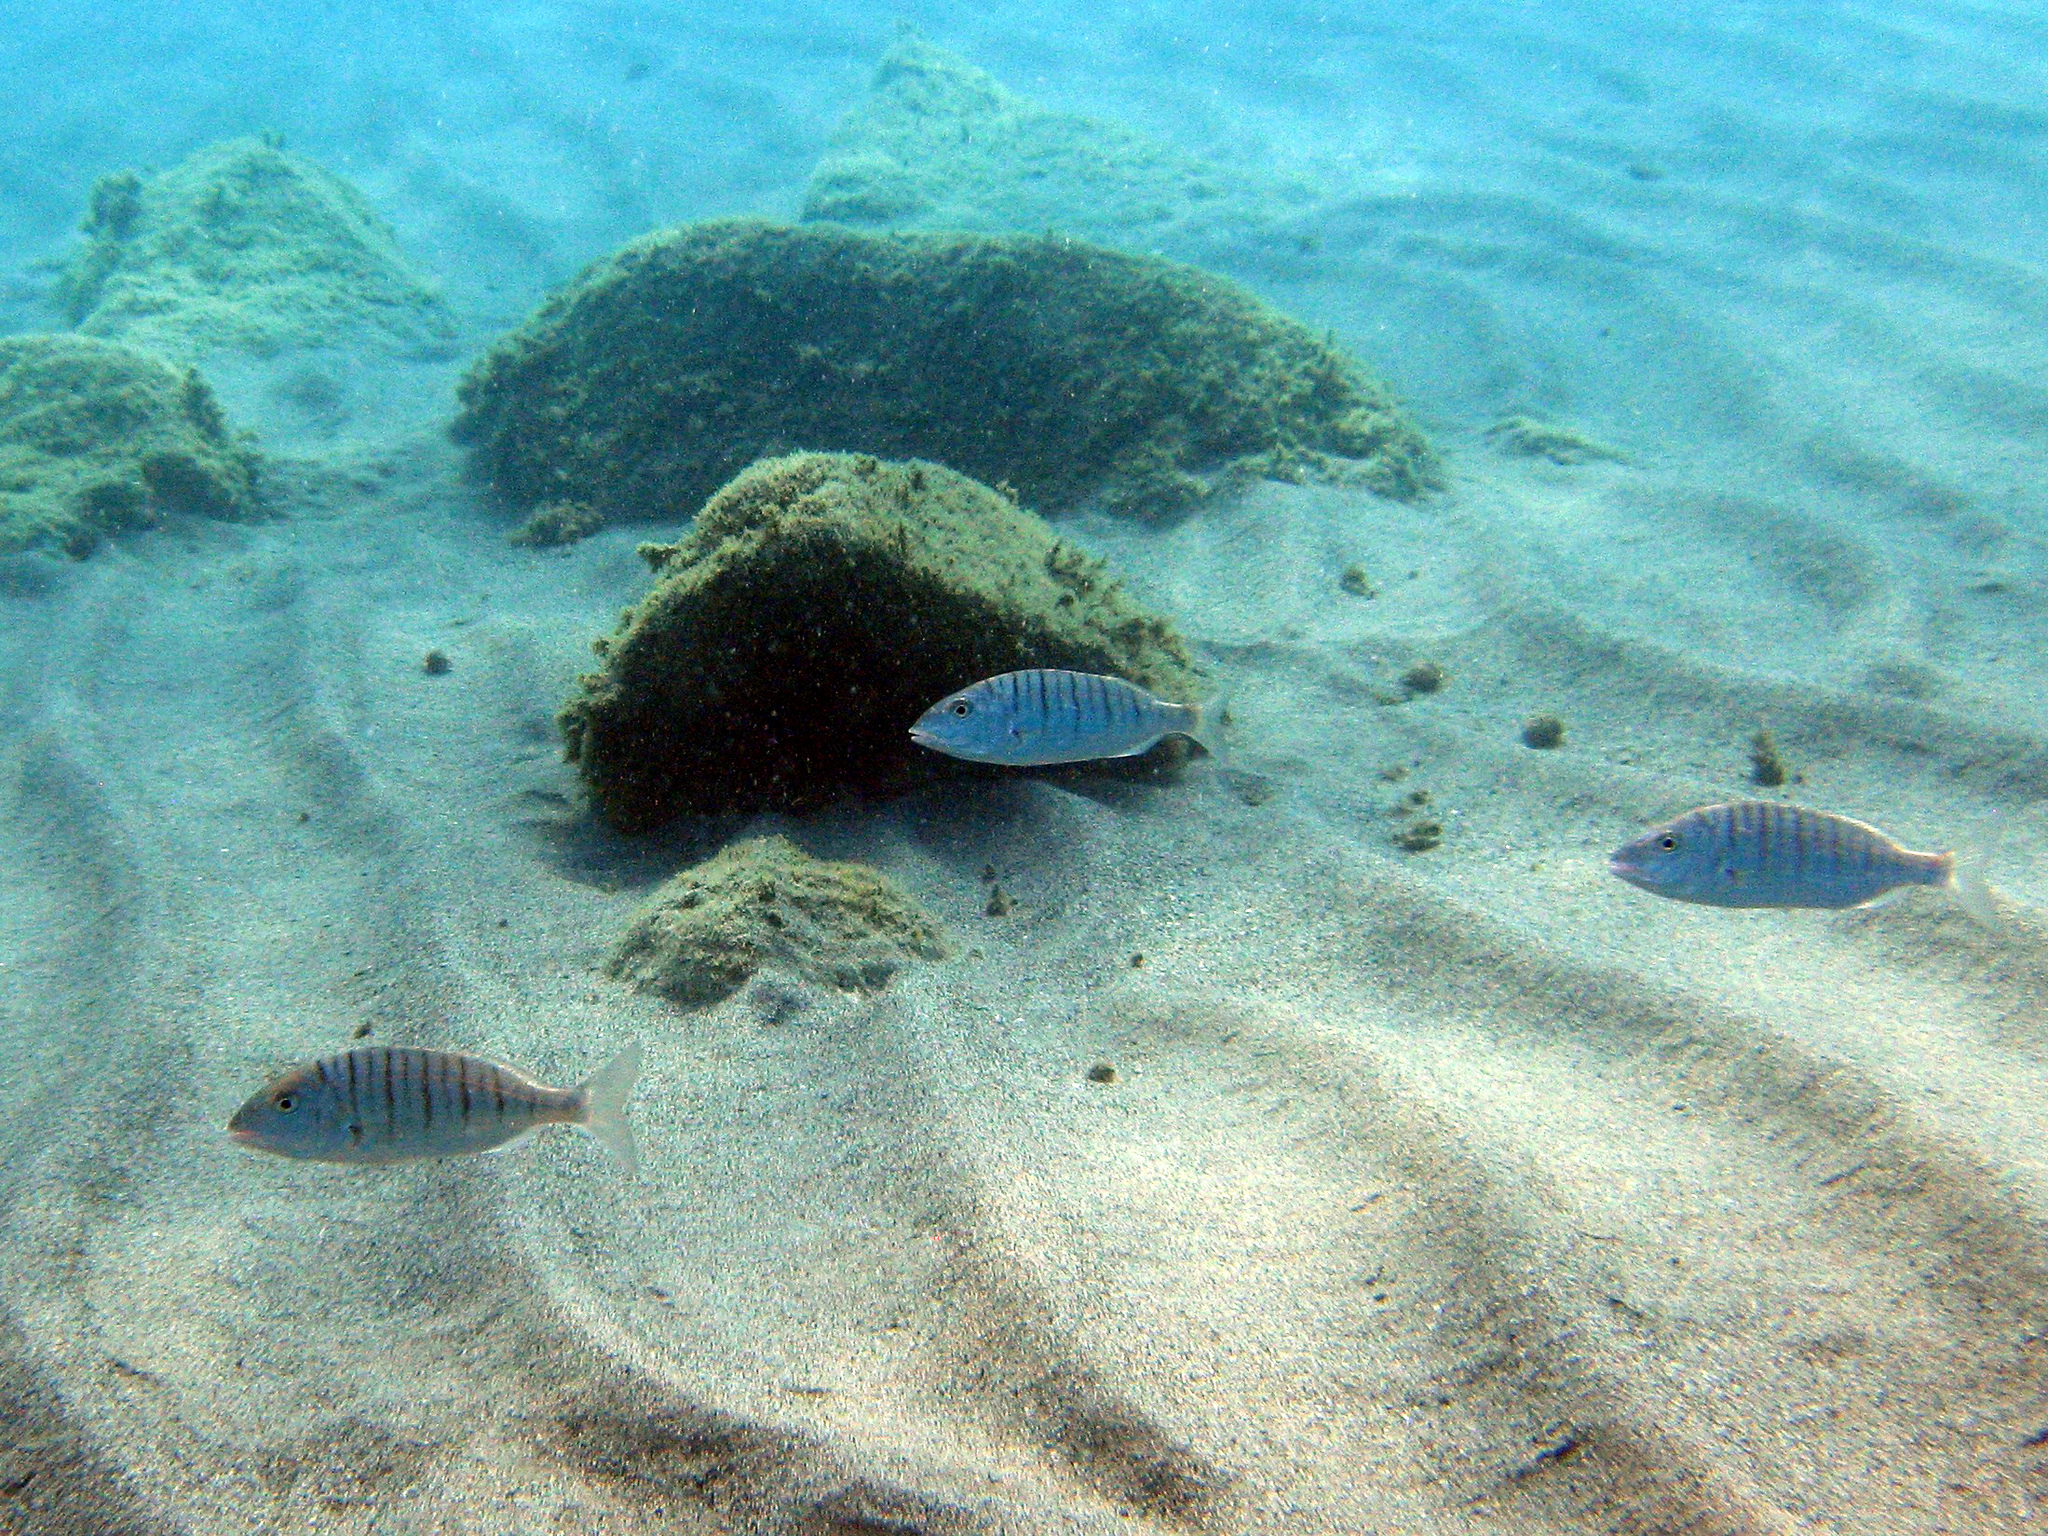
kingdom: Animalia
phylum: Chordata
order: Perciformes
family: Sparidae
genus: Lithognathus
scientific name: Lithognathus mormyrus
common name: Sand steenbras
